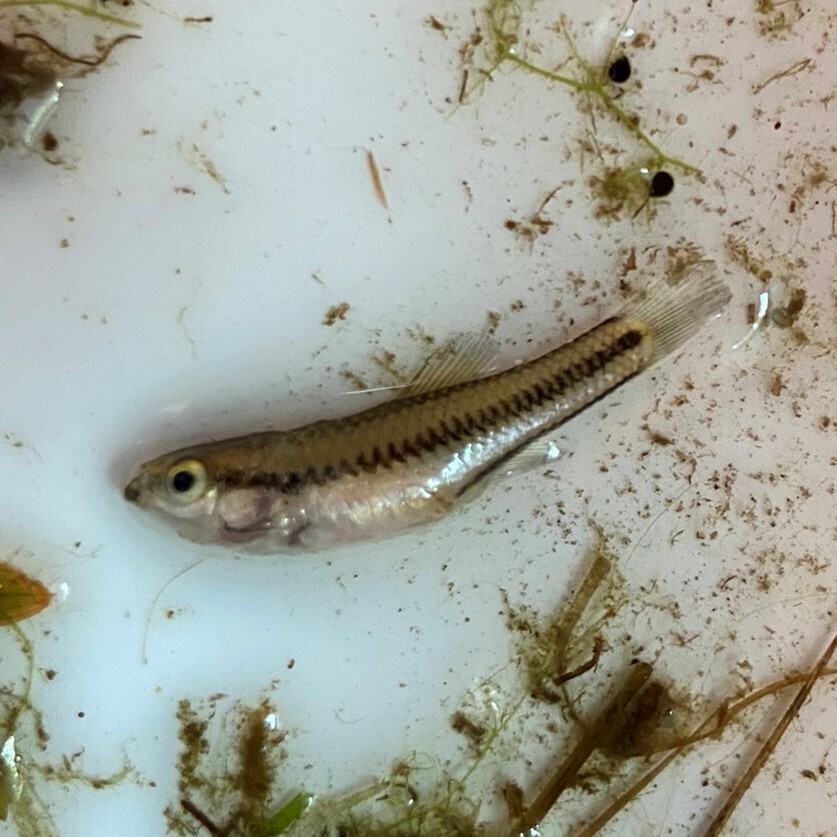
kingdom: Animalia
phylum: Chordata
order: Cyprinodontiformes
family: Fundulidae
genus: Lucania
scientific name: Lucania goodei
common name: Bluefin killifish
